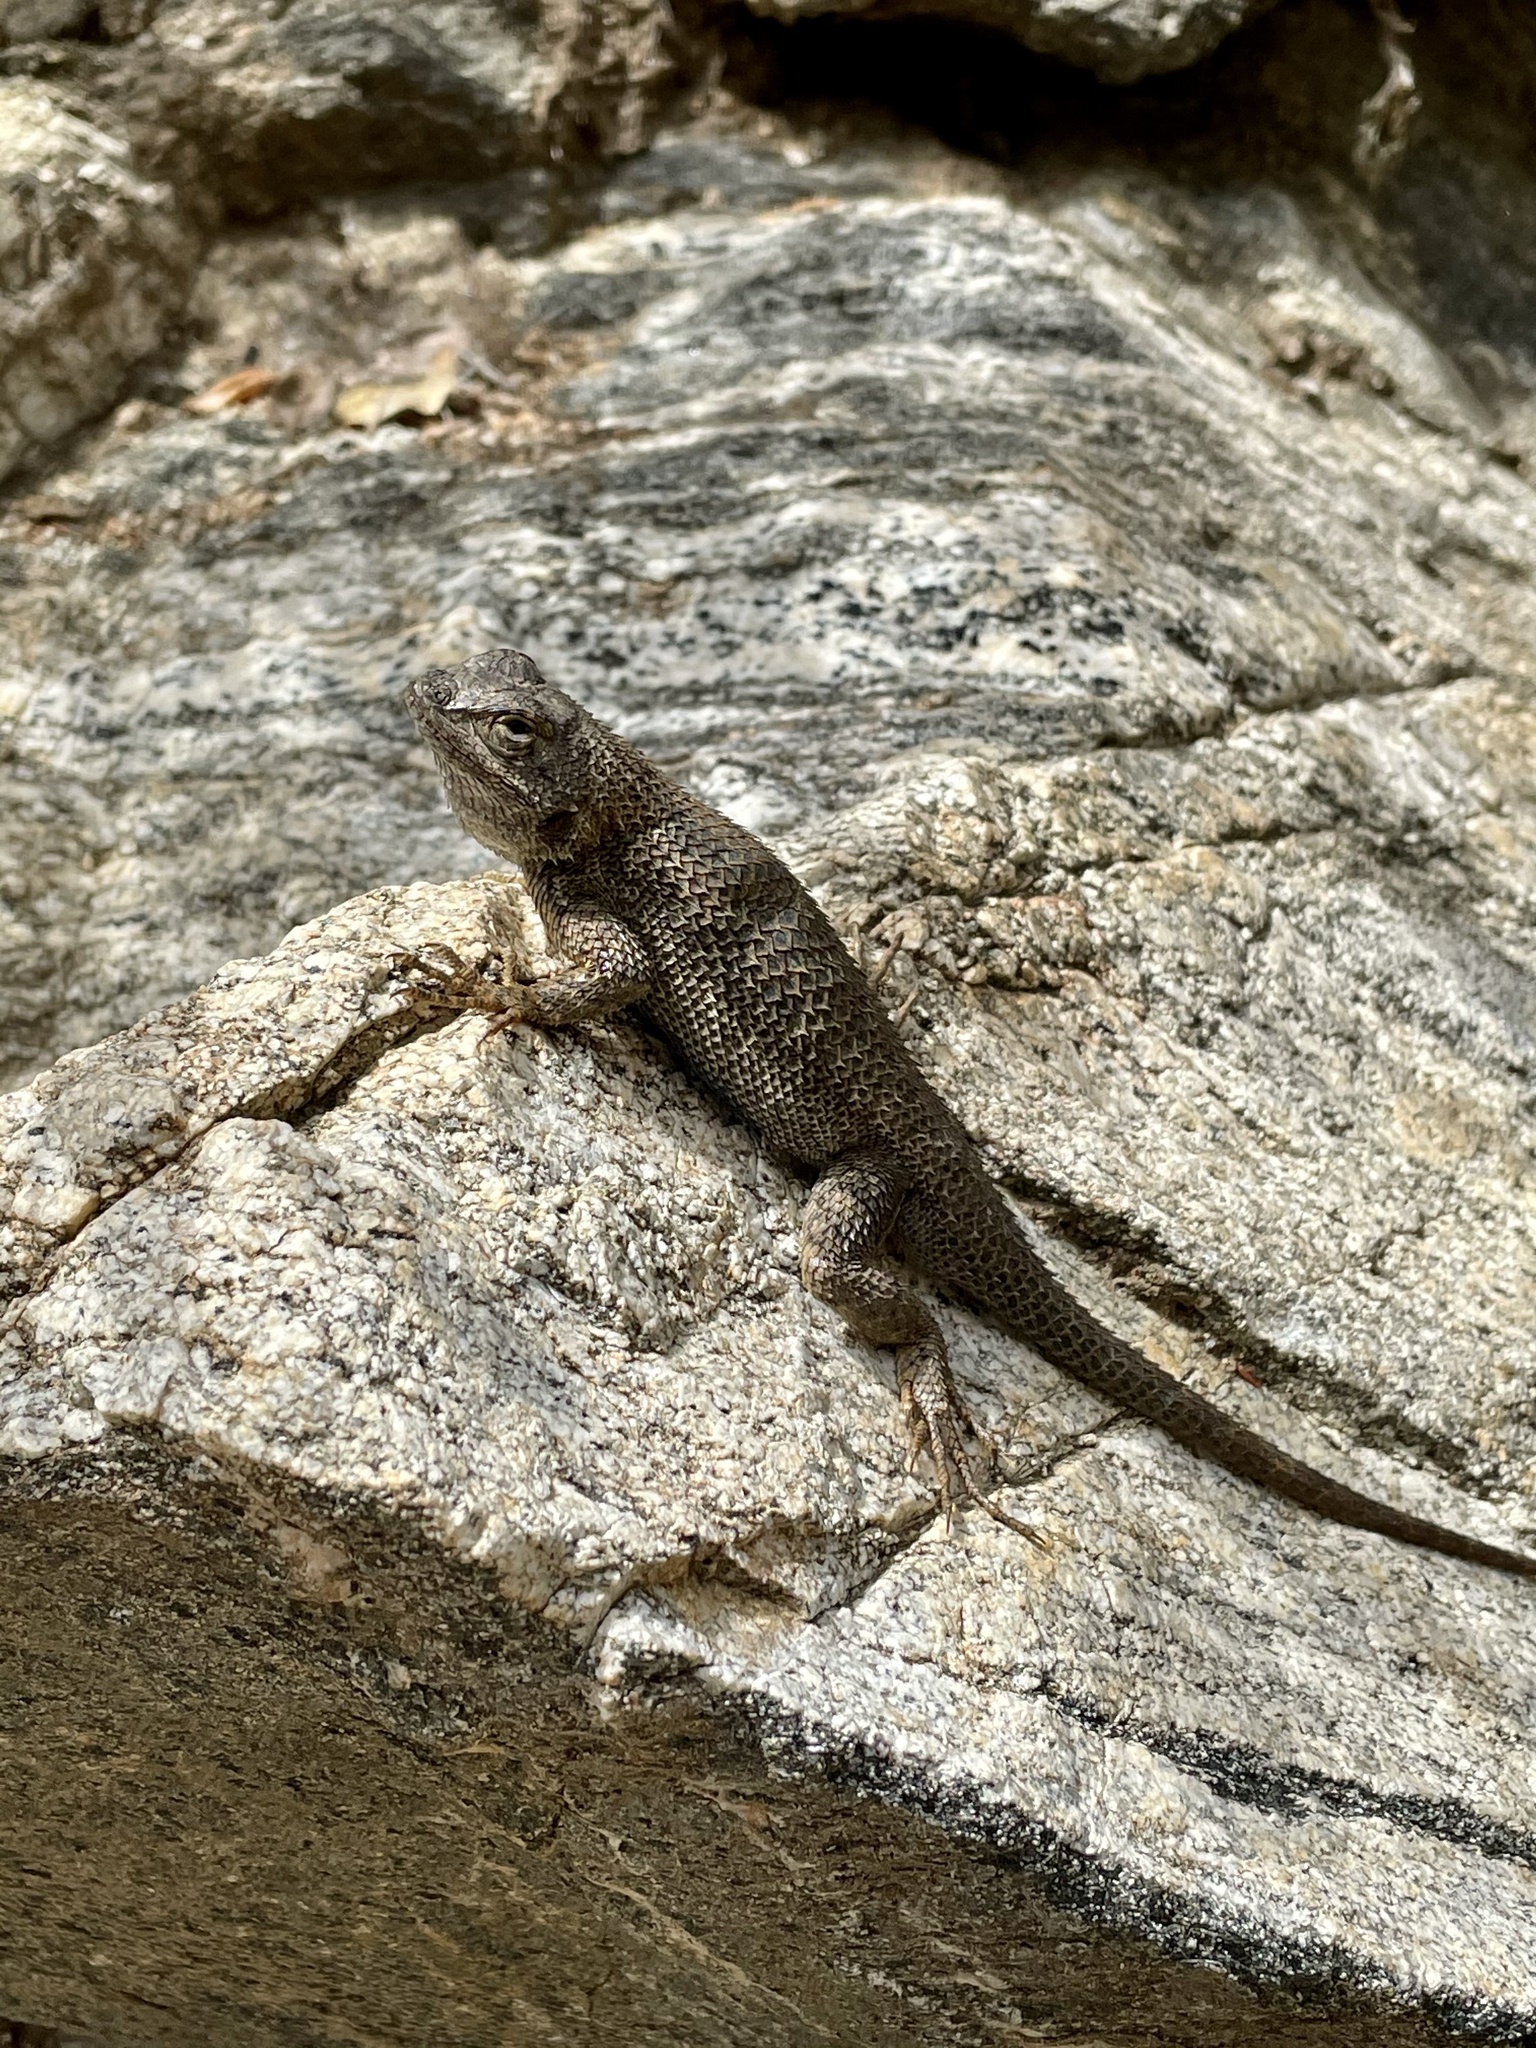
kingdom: Animalia
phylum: Chordata
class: Squamata
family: Phrynosomatidae
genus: Sceloporus
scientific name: Sceloporus occidentalis
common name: Western fence lizard
